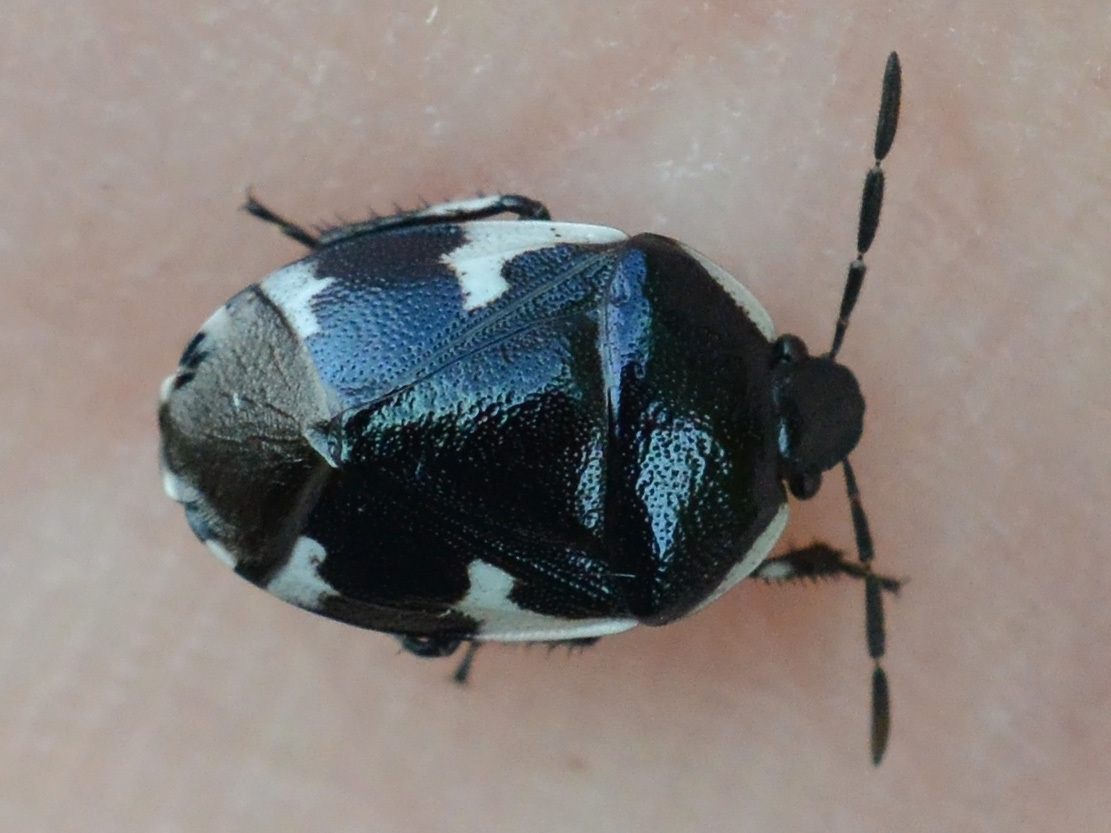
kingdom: Animalia
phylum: Arthropoda
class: Insecta
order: Hemiptera
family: Cydnidae
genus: Tritomegas
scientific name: Tritomegas sexmaculatus
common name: Rambur's pied shieldbug
